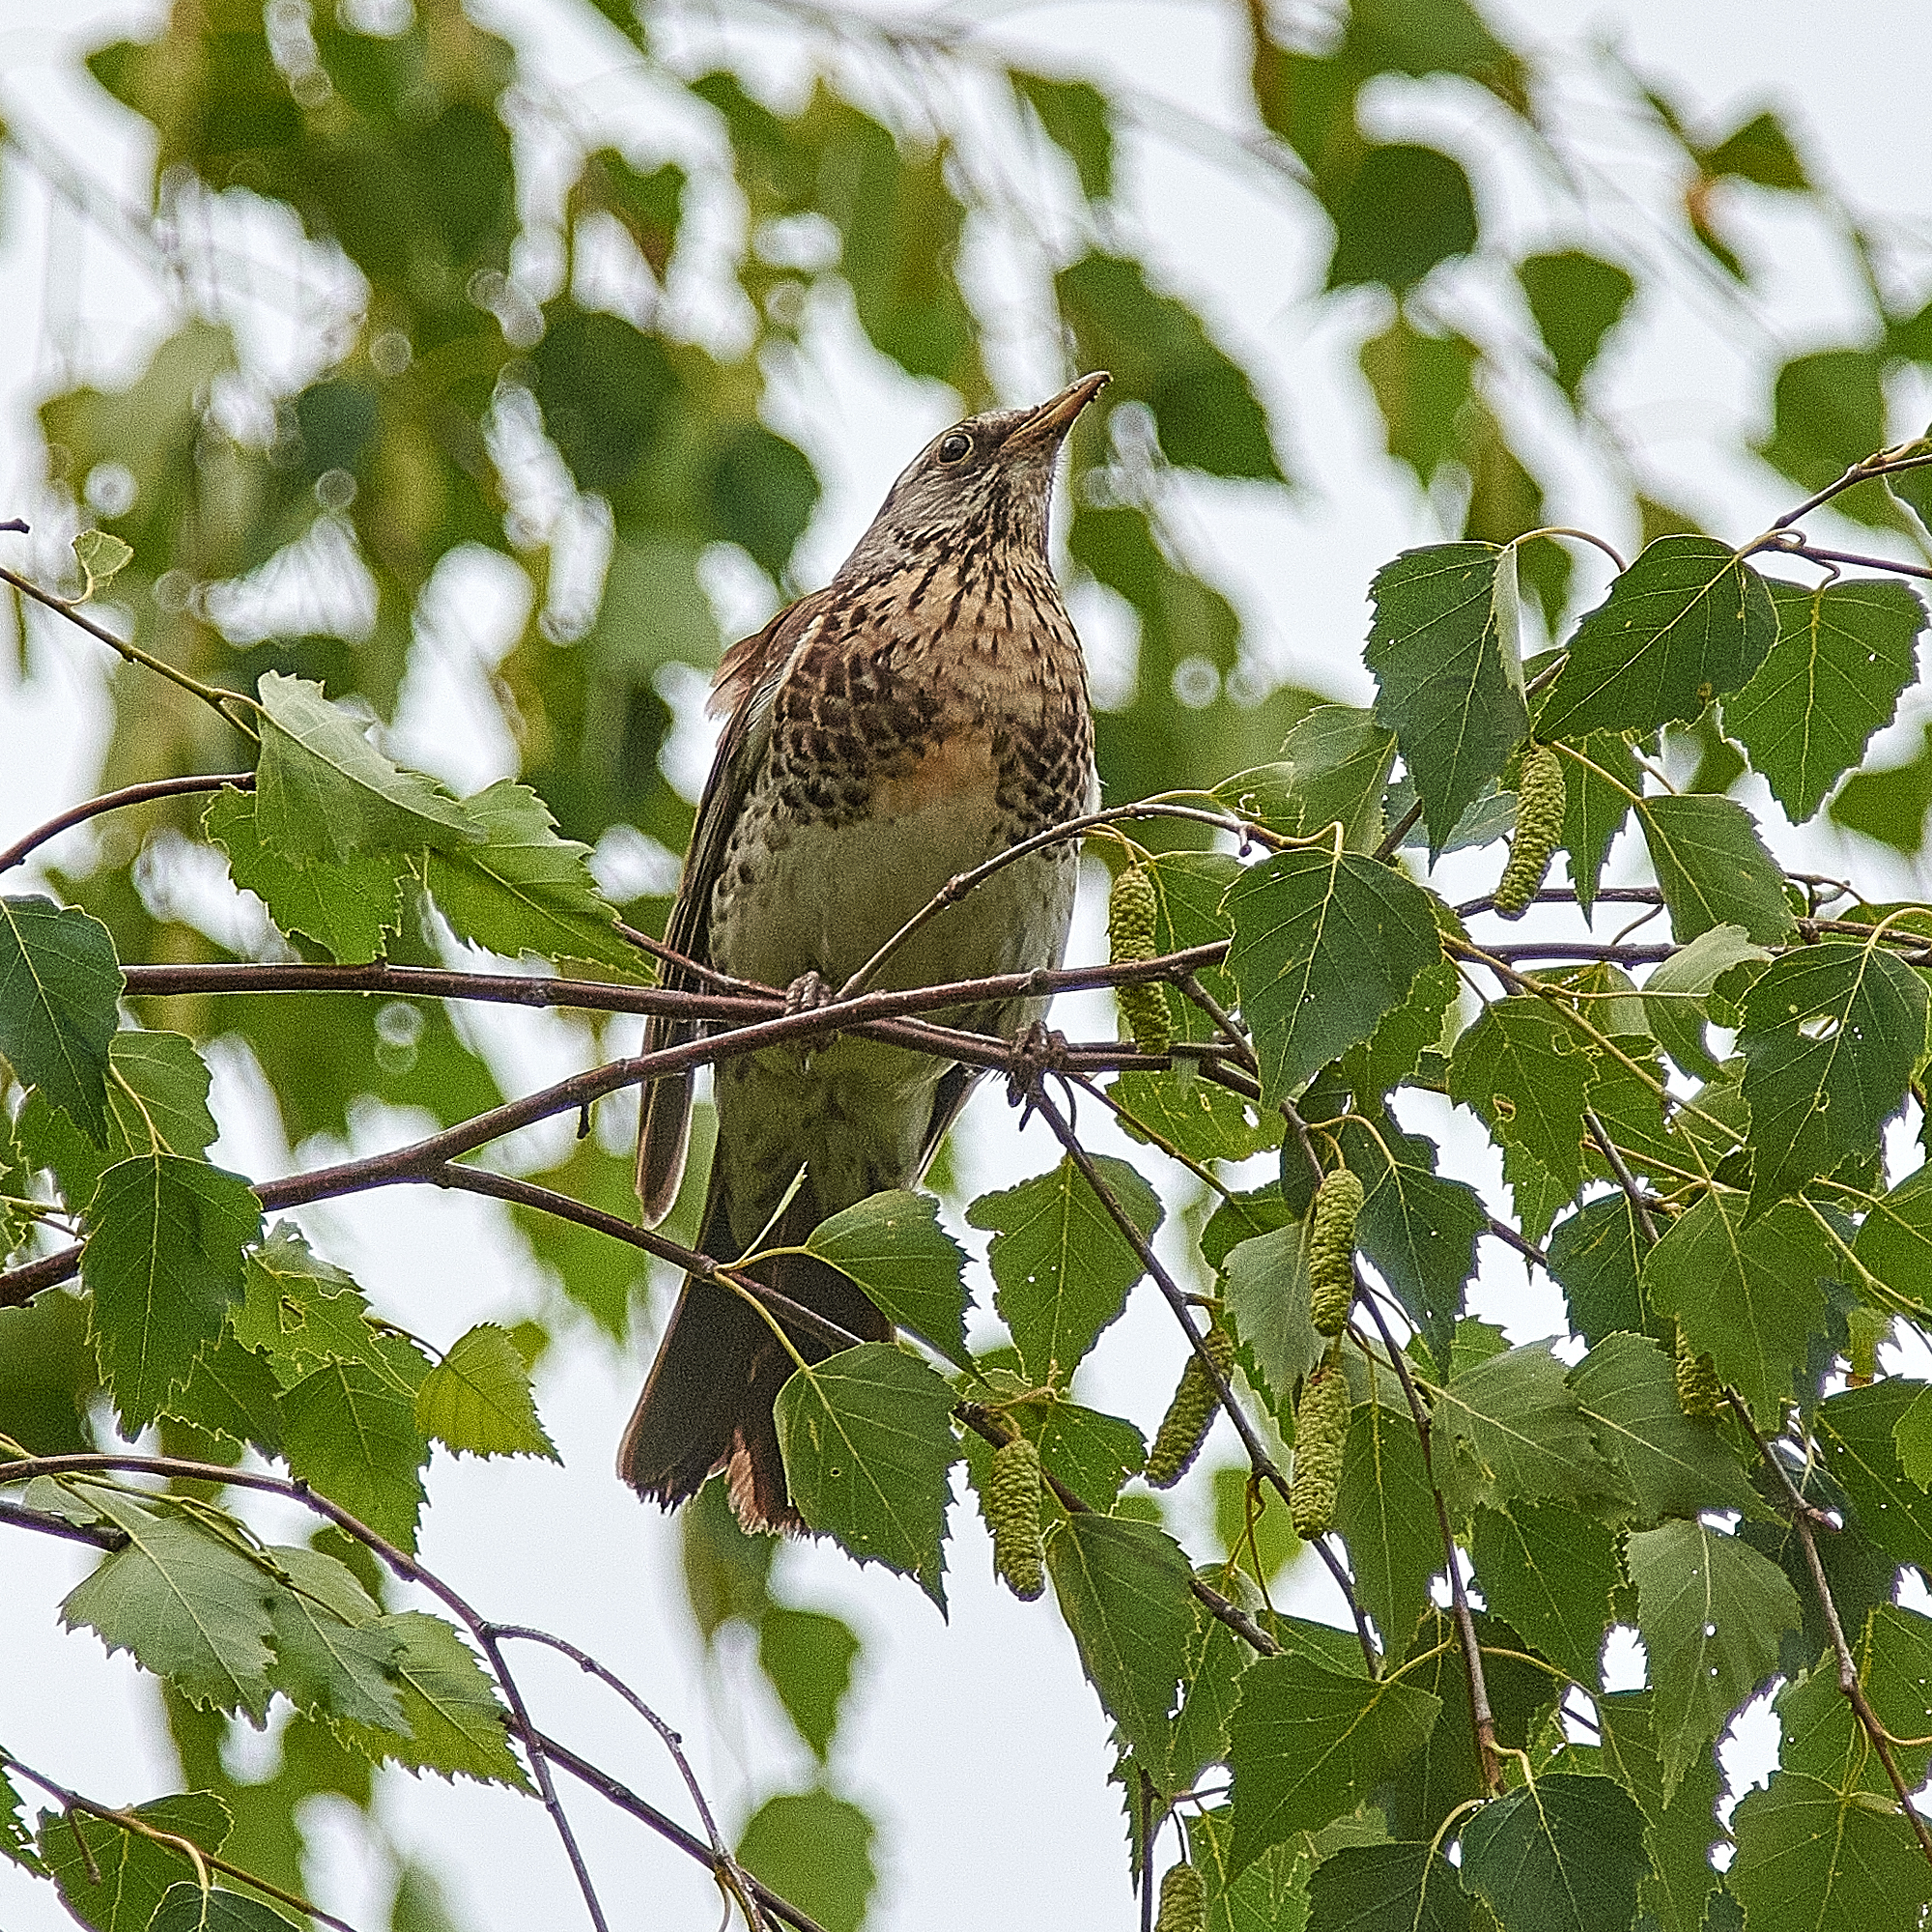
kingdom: Animalia
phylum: Chordata
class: Aves
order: Passeriformes
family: Turdidae
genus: Turdus
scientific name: Turdus pilaris
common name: Fieldfare
